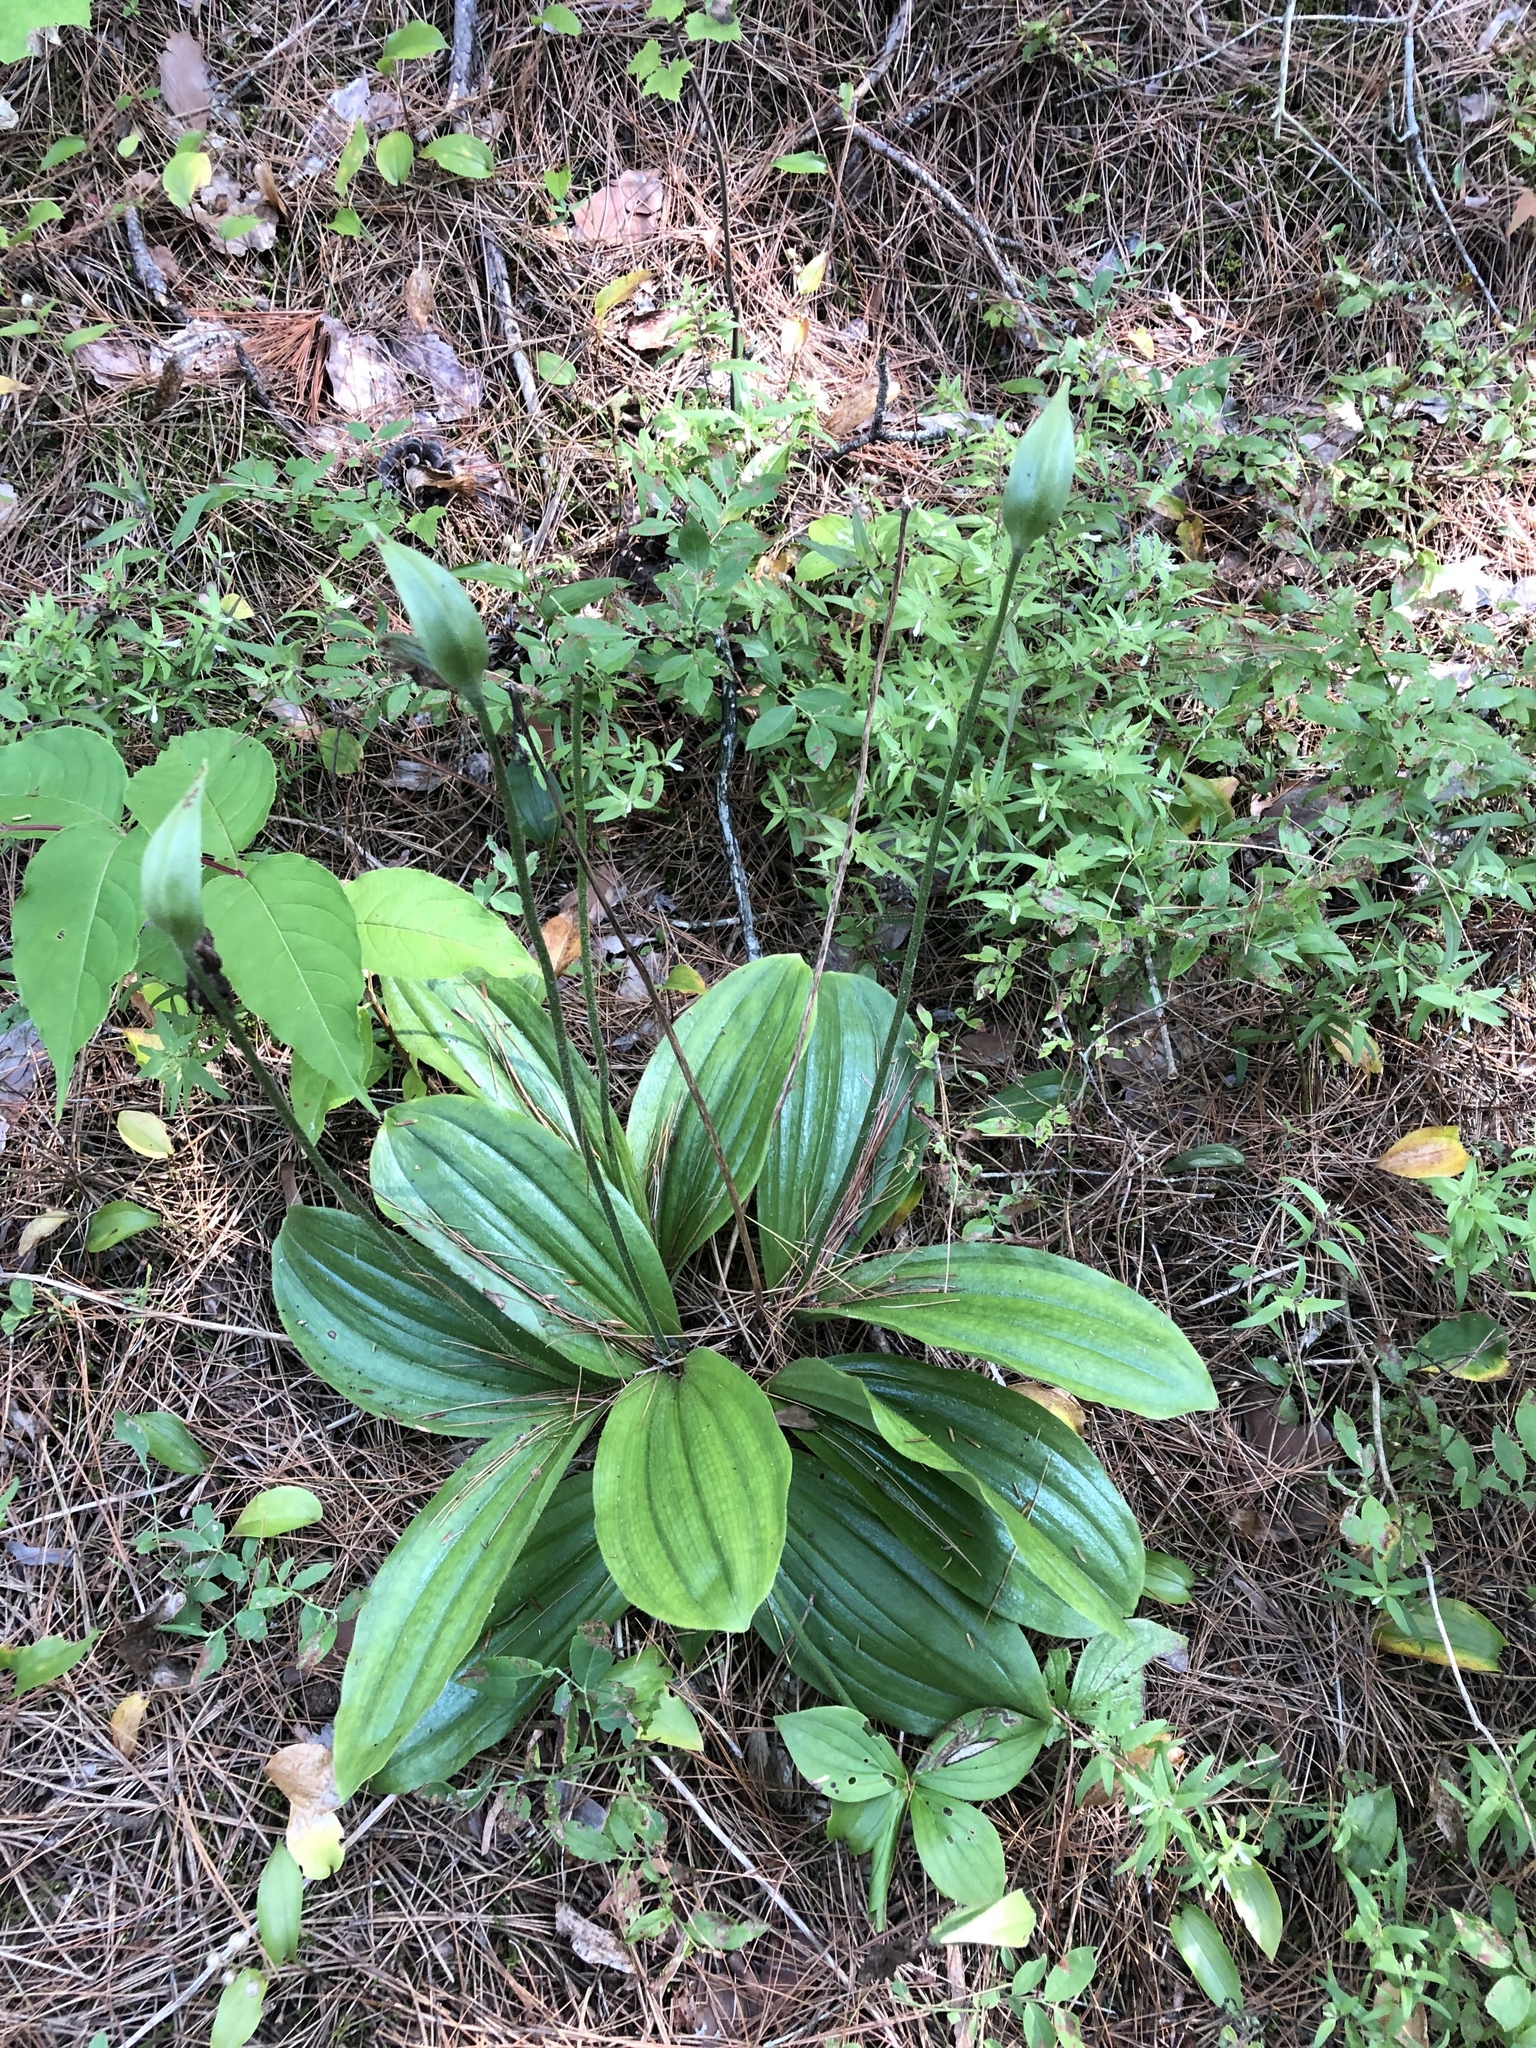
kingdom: Plantae
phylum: Tracheophyta
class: Liliopsida
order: Asparagales
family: Orchidaceae
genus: Cypripedium
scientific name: Cypripedium acaule
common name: Pink lady's-slipper
